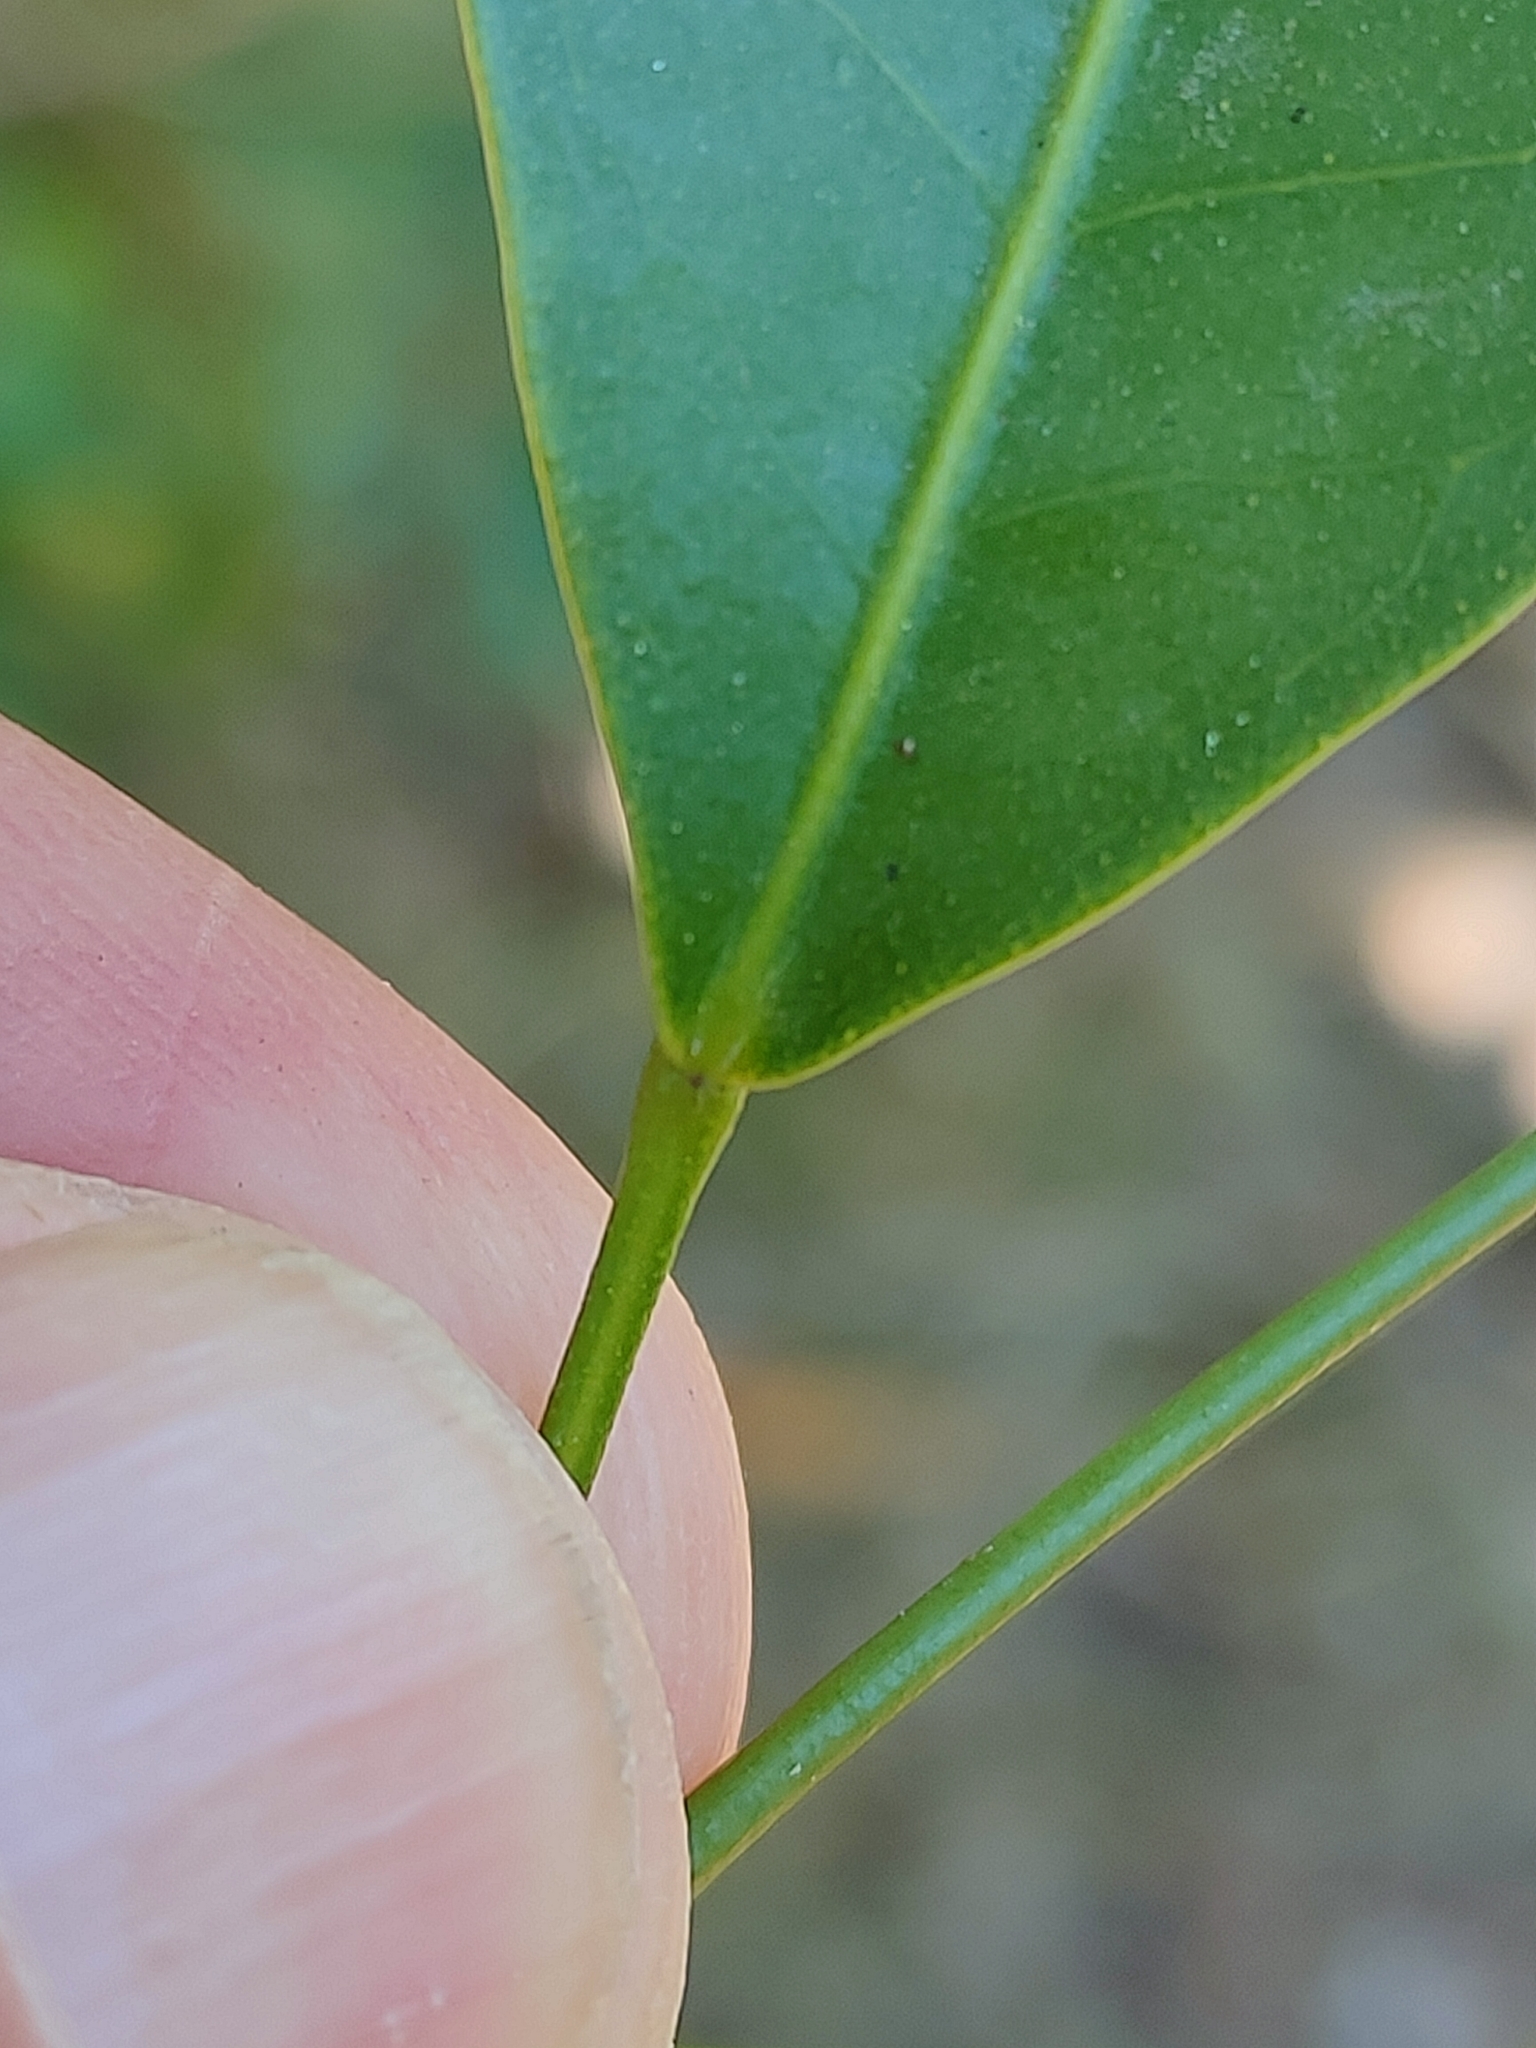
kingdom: Plantae
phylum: Tracheophyta
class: Magnoliopsida
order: Sapindales
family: Rutaceae
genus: Acronychia
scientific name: Acronychia laevis
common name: Hard aspen
